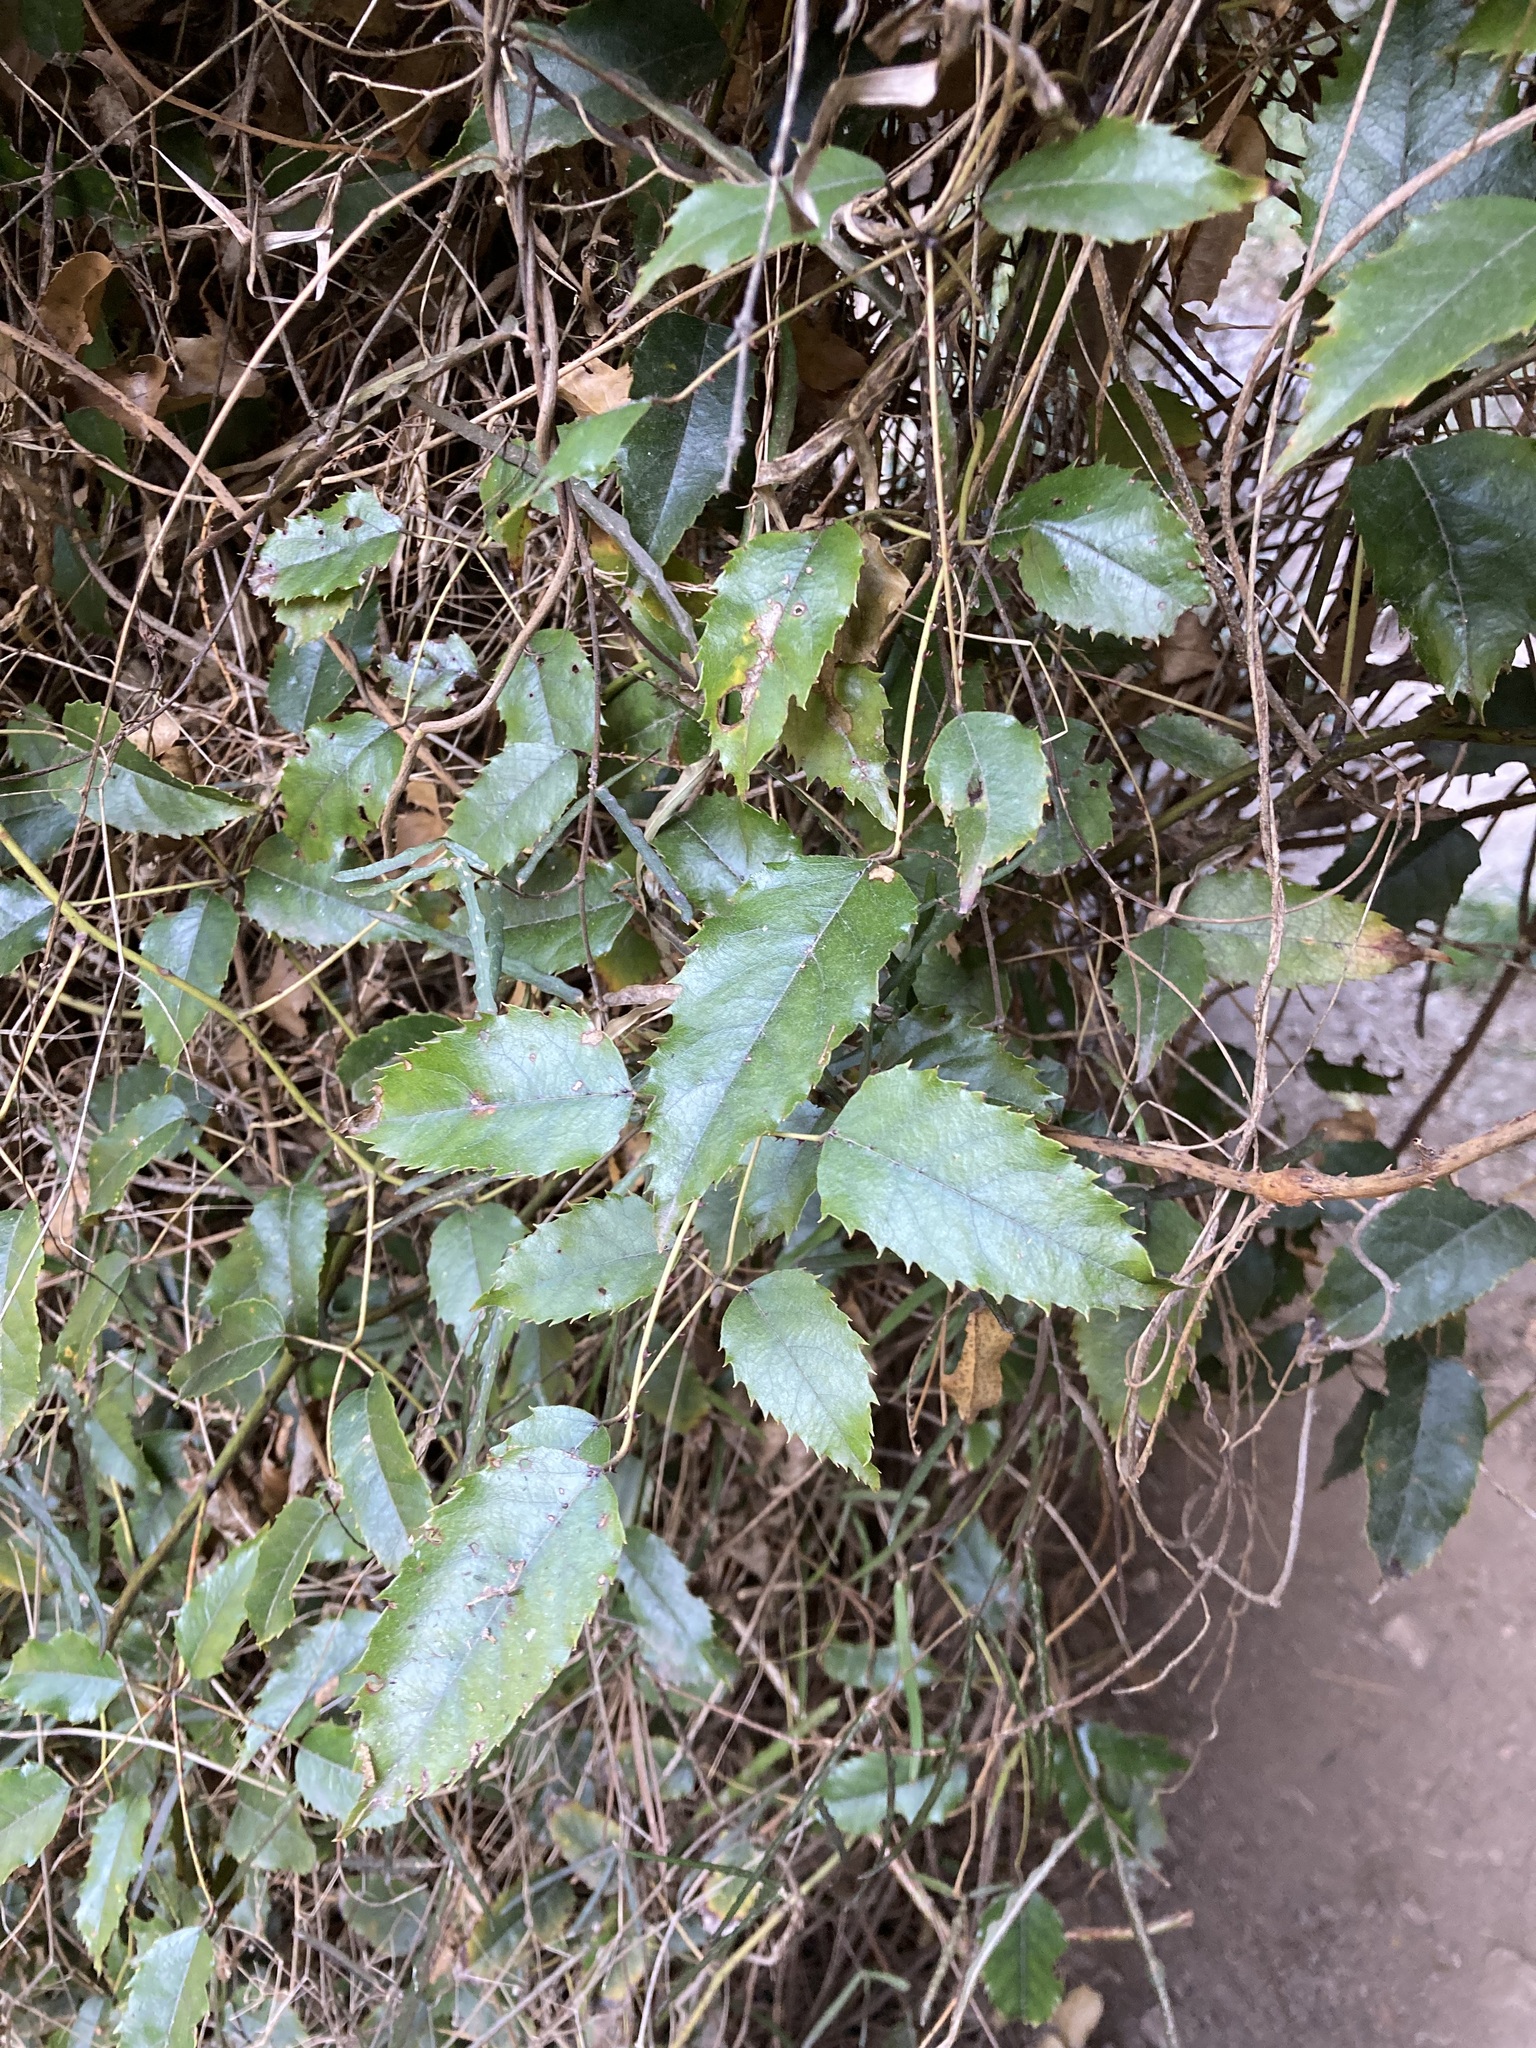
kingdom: Plantae
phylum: Tracheophyta
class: Magnoliopsida
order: Rosales
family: Rosaceae
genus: Rubus
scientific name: Rubus cissoides
